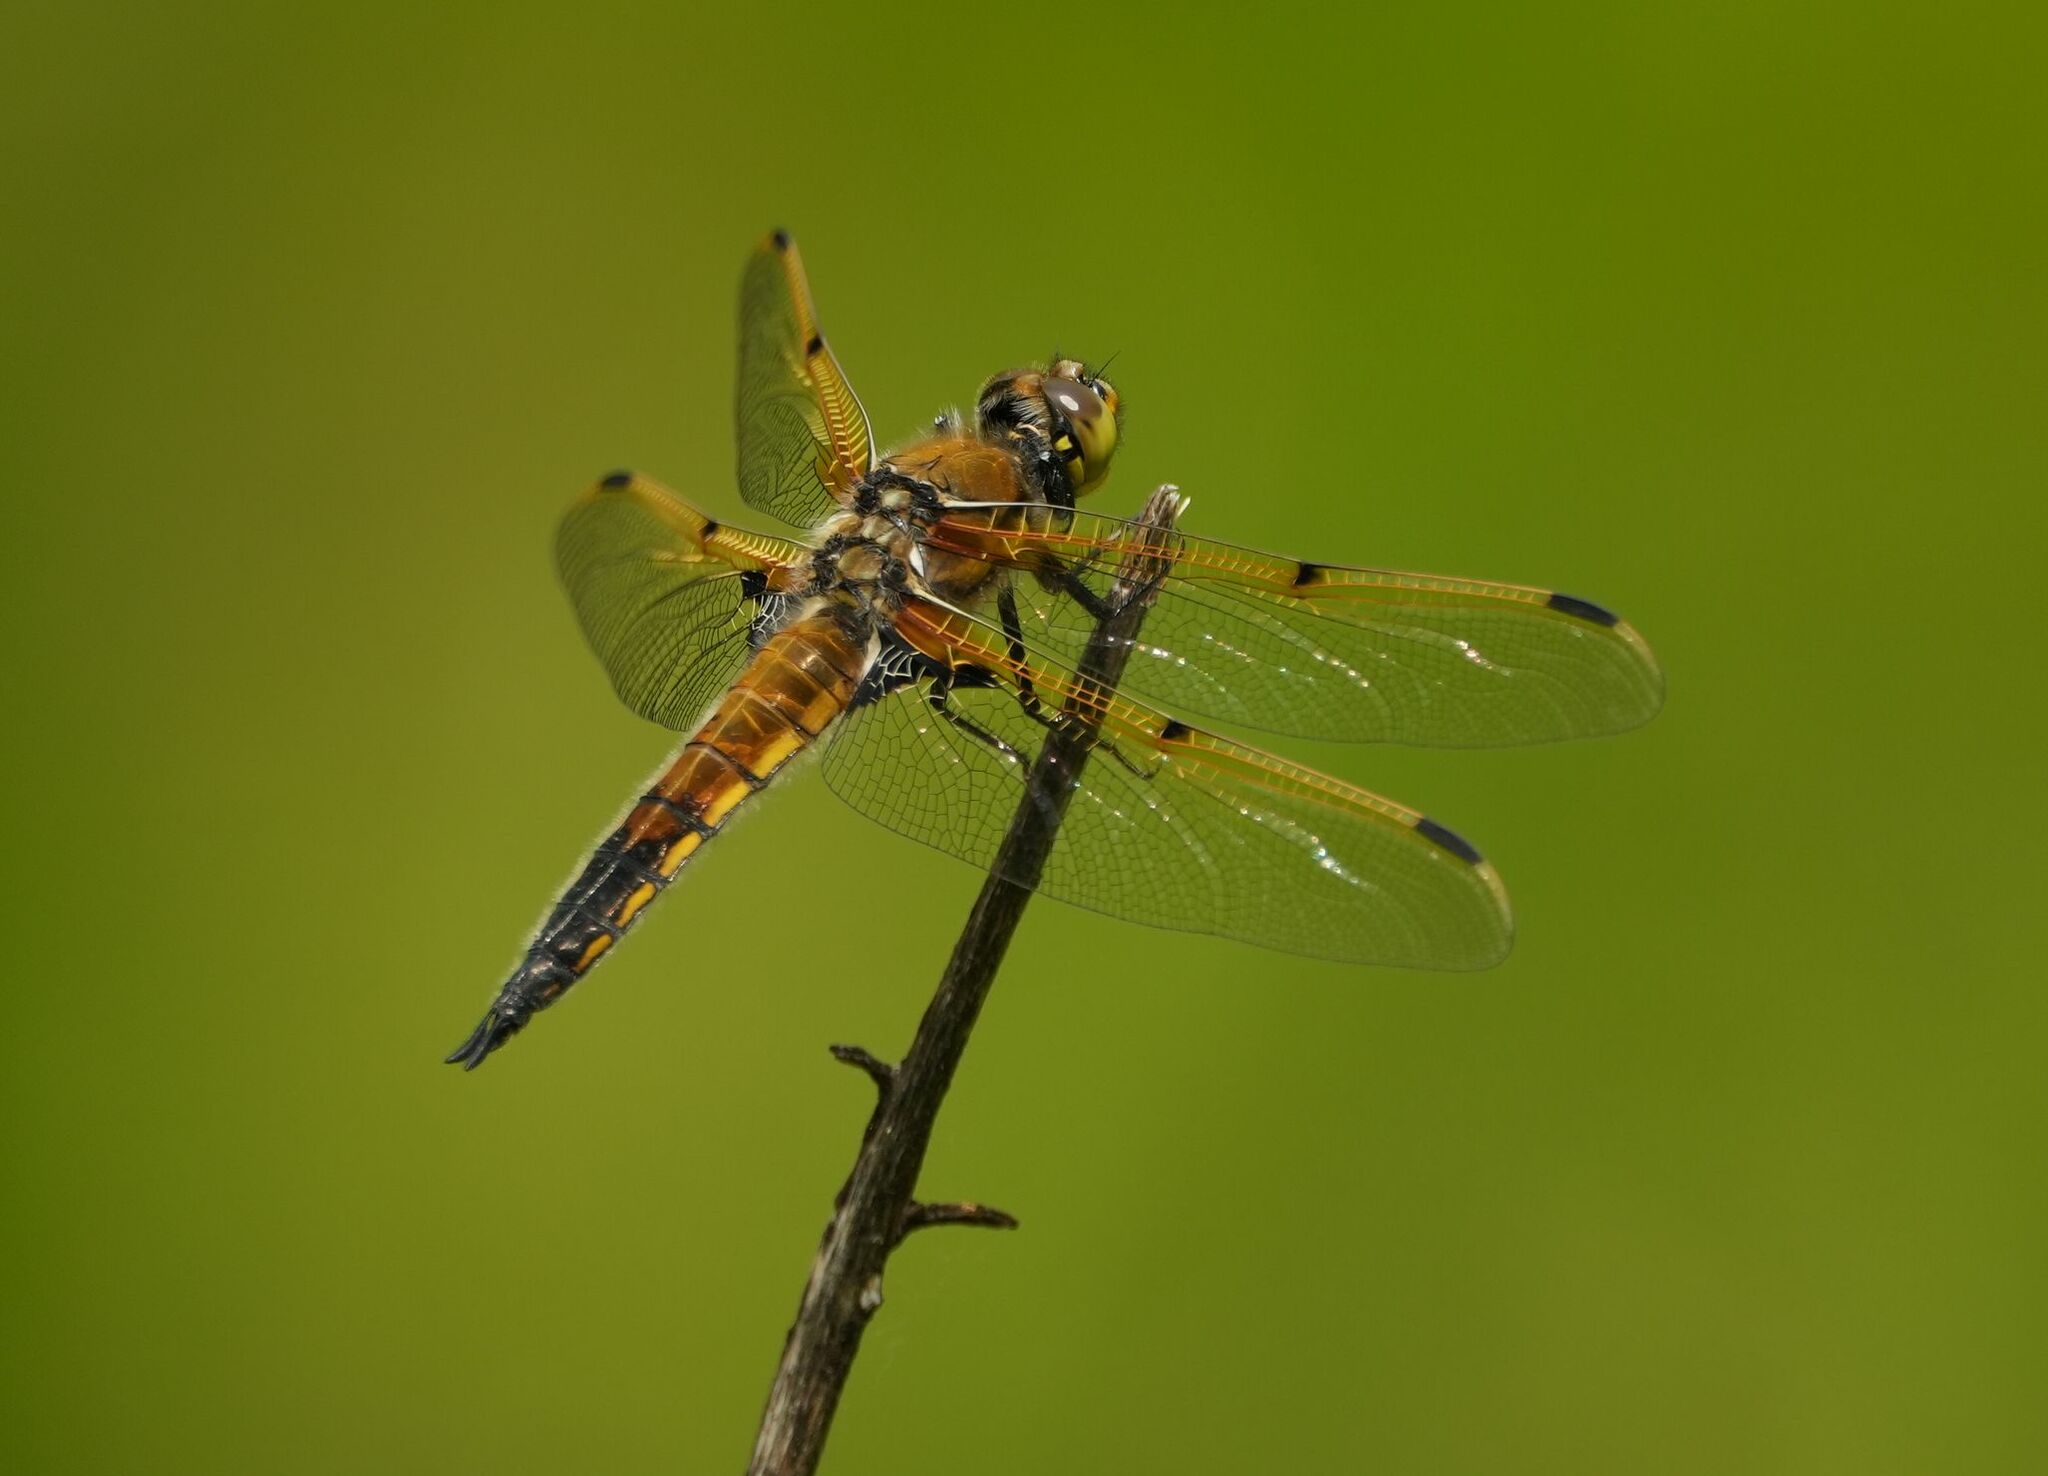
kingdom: Animalia
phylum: Arthropoda
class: Insecta
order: Odonata
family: Libellulidae
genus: Libellula
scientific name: Libellula quadrimaculata
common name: Four-spotted chaser
